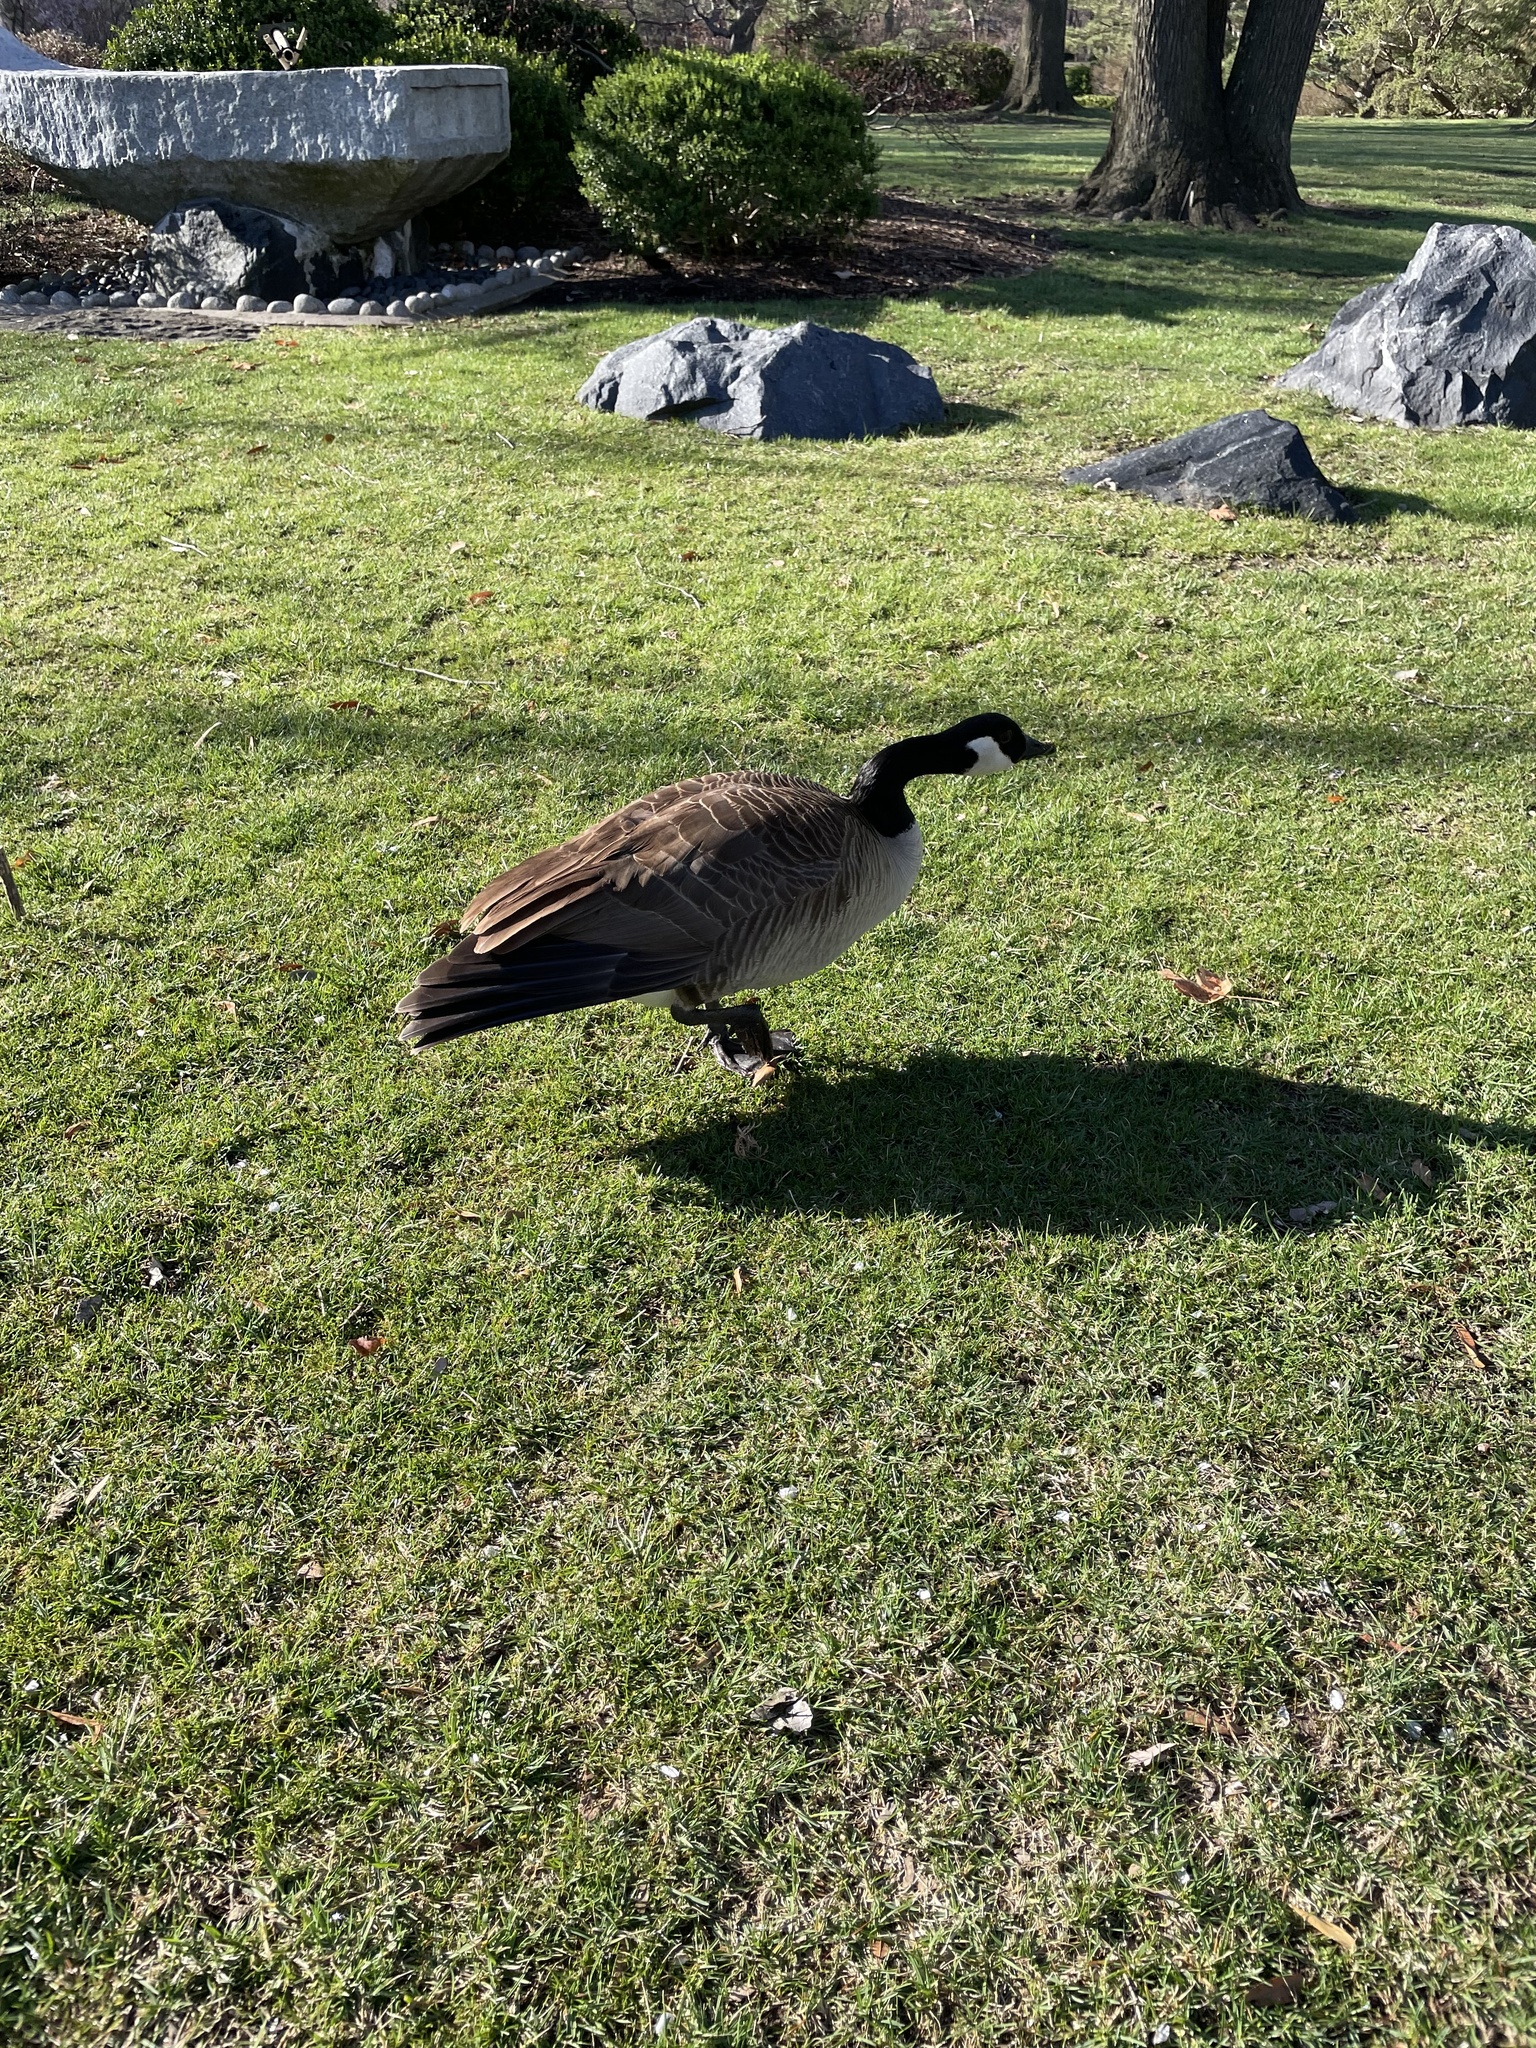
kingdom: Animalia
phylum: Chordata
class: Aves
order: Anseriformes
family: Anatidae
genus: Branta
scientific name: Branta canadensis
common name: Canada goose
